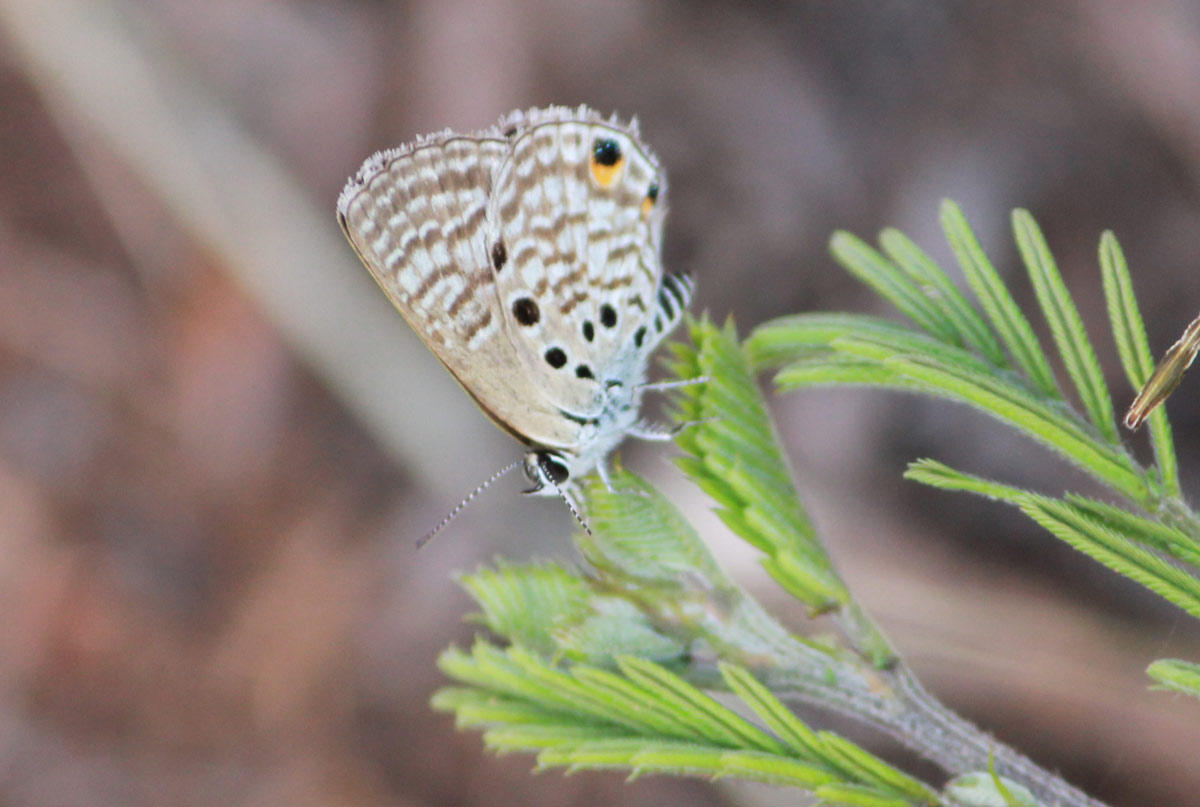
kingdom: Animalia
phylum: Arthropoda
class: Insecta
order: Lepidoptera
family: Lycaenidae
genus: Anthene
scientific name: Anthene amarah
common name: Black-striped hairtail
